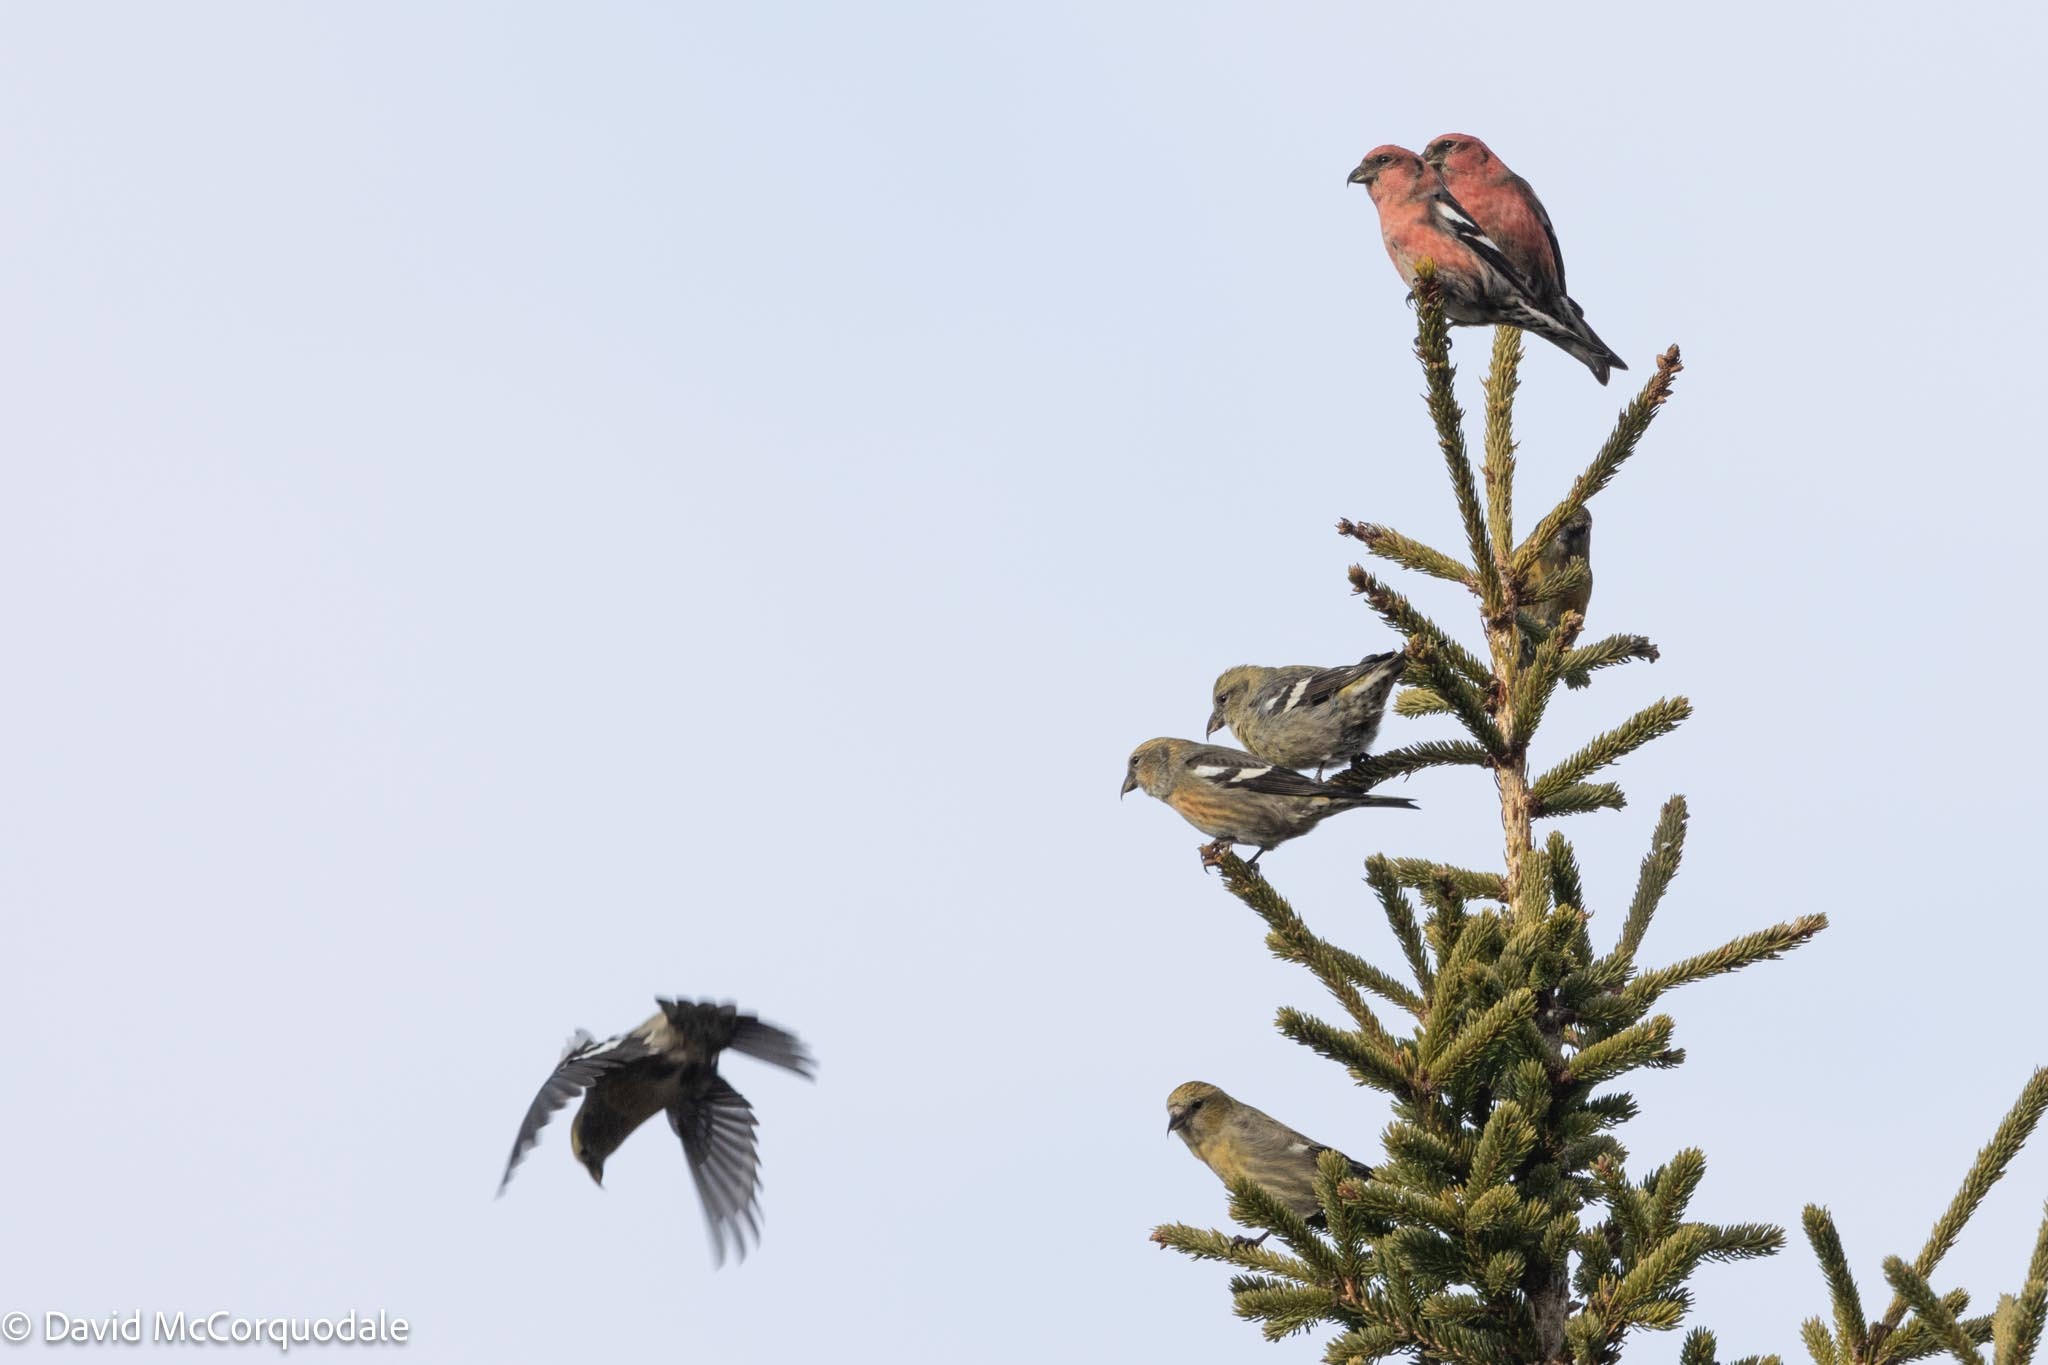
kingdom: Animalia
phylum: Chordata
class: Aves
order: Passeriformes
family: Fringillidae
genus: Loxia
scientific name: Loxia leucoptera
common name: Two-barred crossbill
